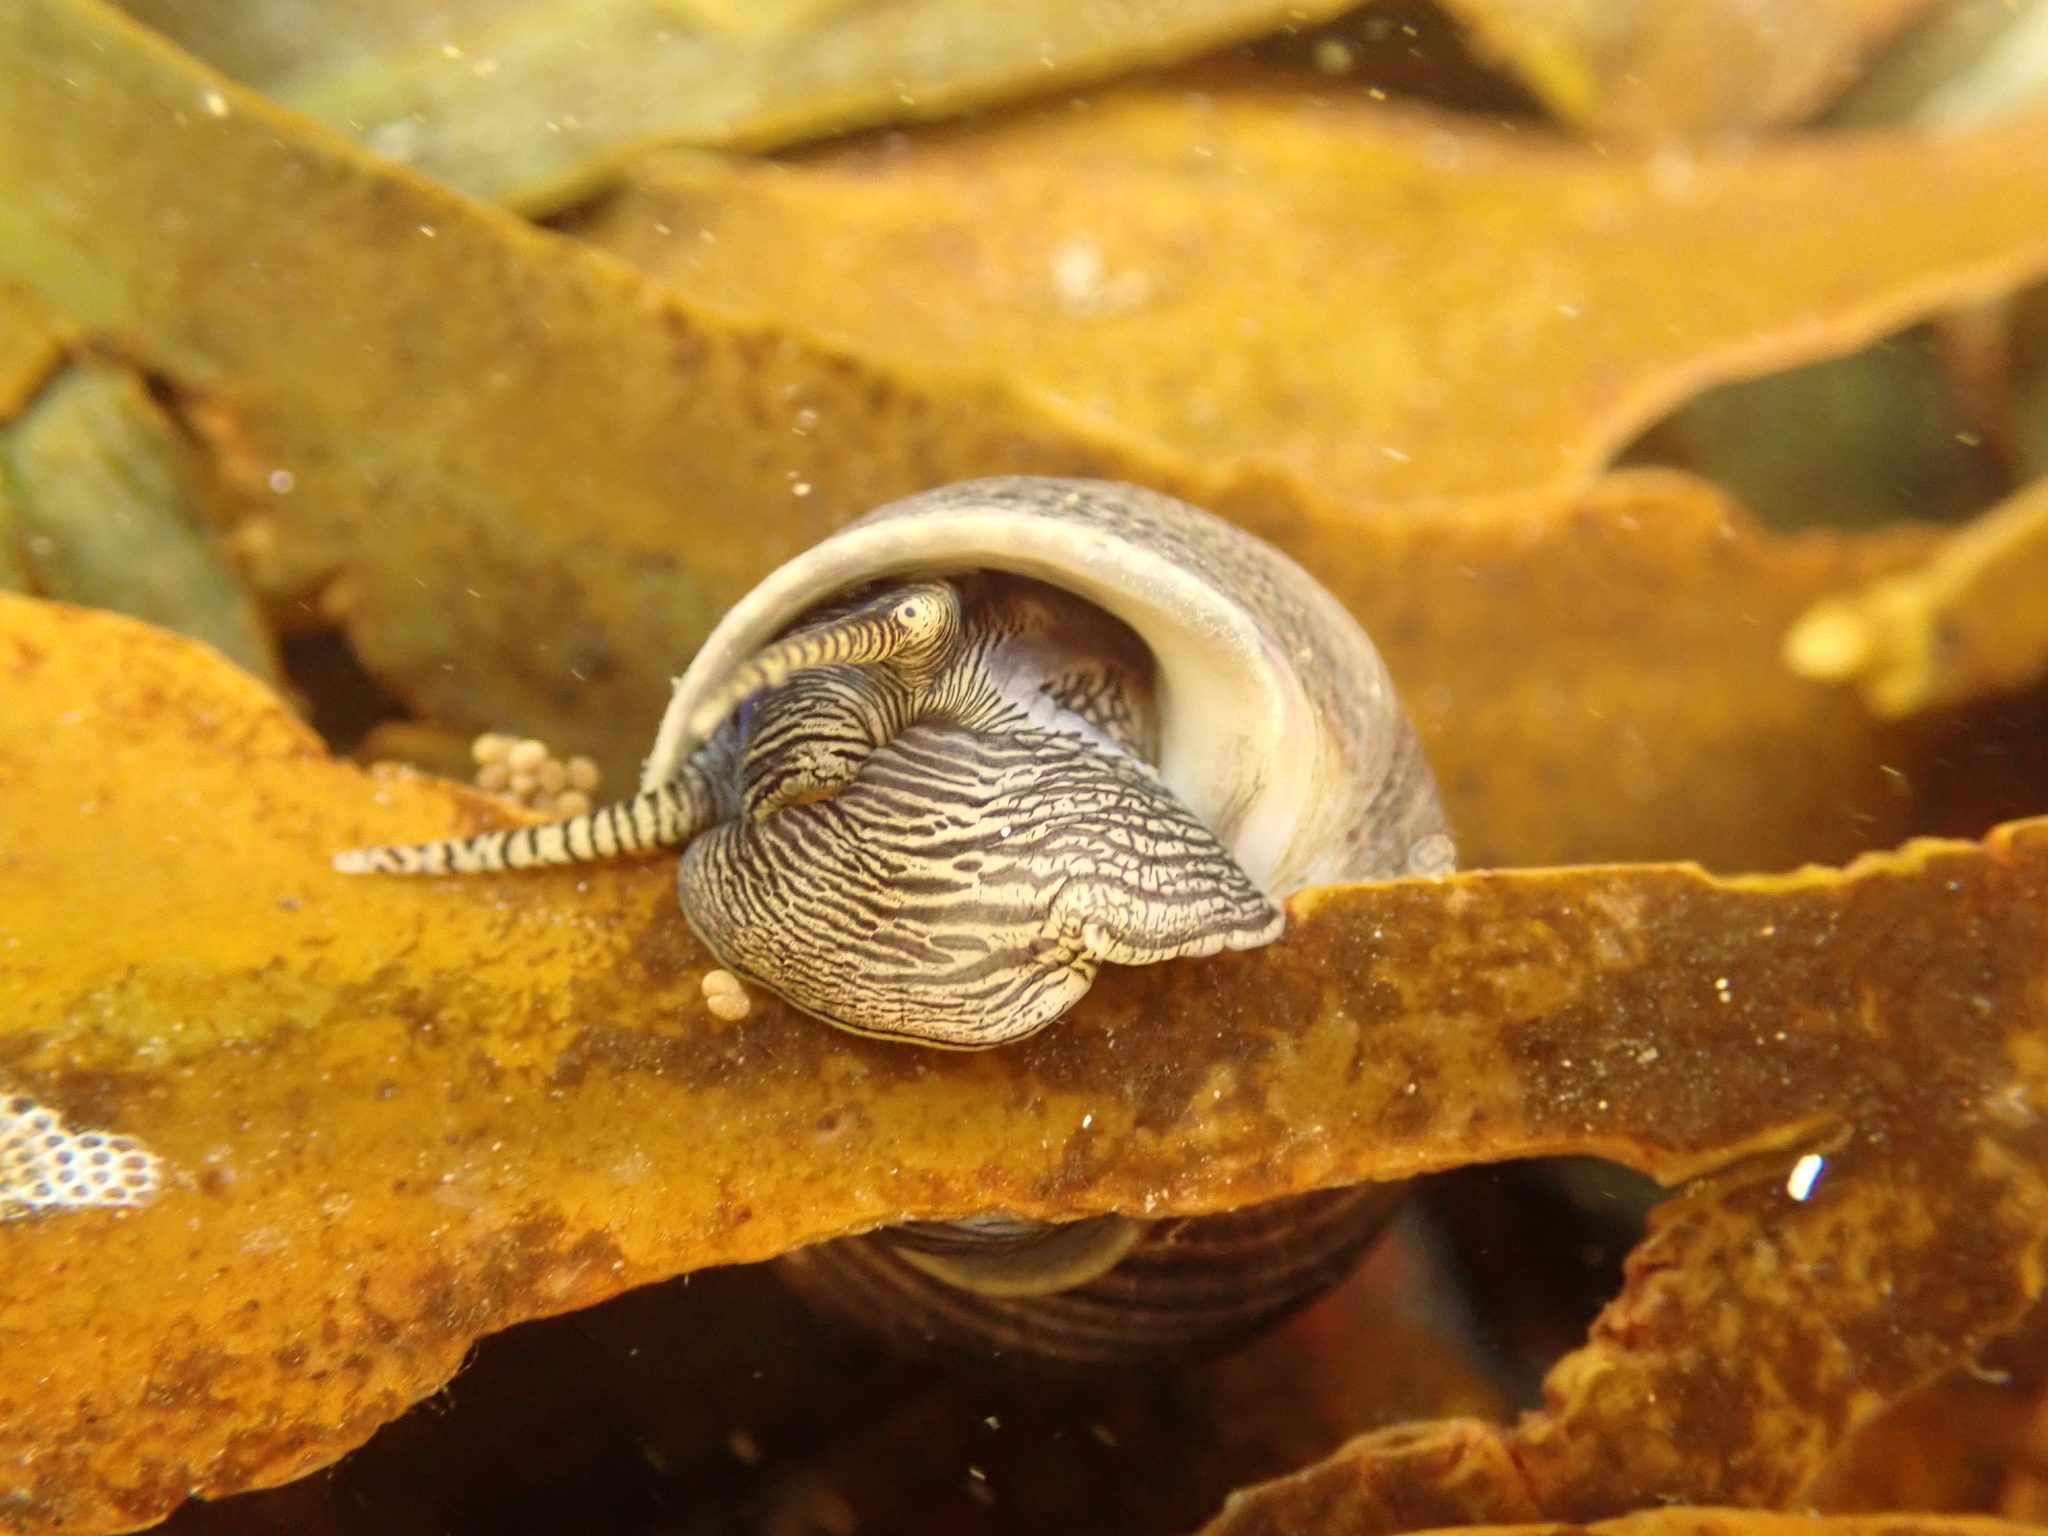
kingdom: Animalia
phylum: Mollusca
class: Gastropoda
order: Littorinimorpha
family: Littorinidae
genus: Littorina
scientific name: Littorina littorea
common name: Common periwinkle
